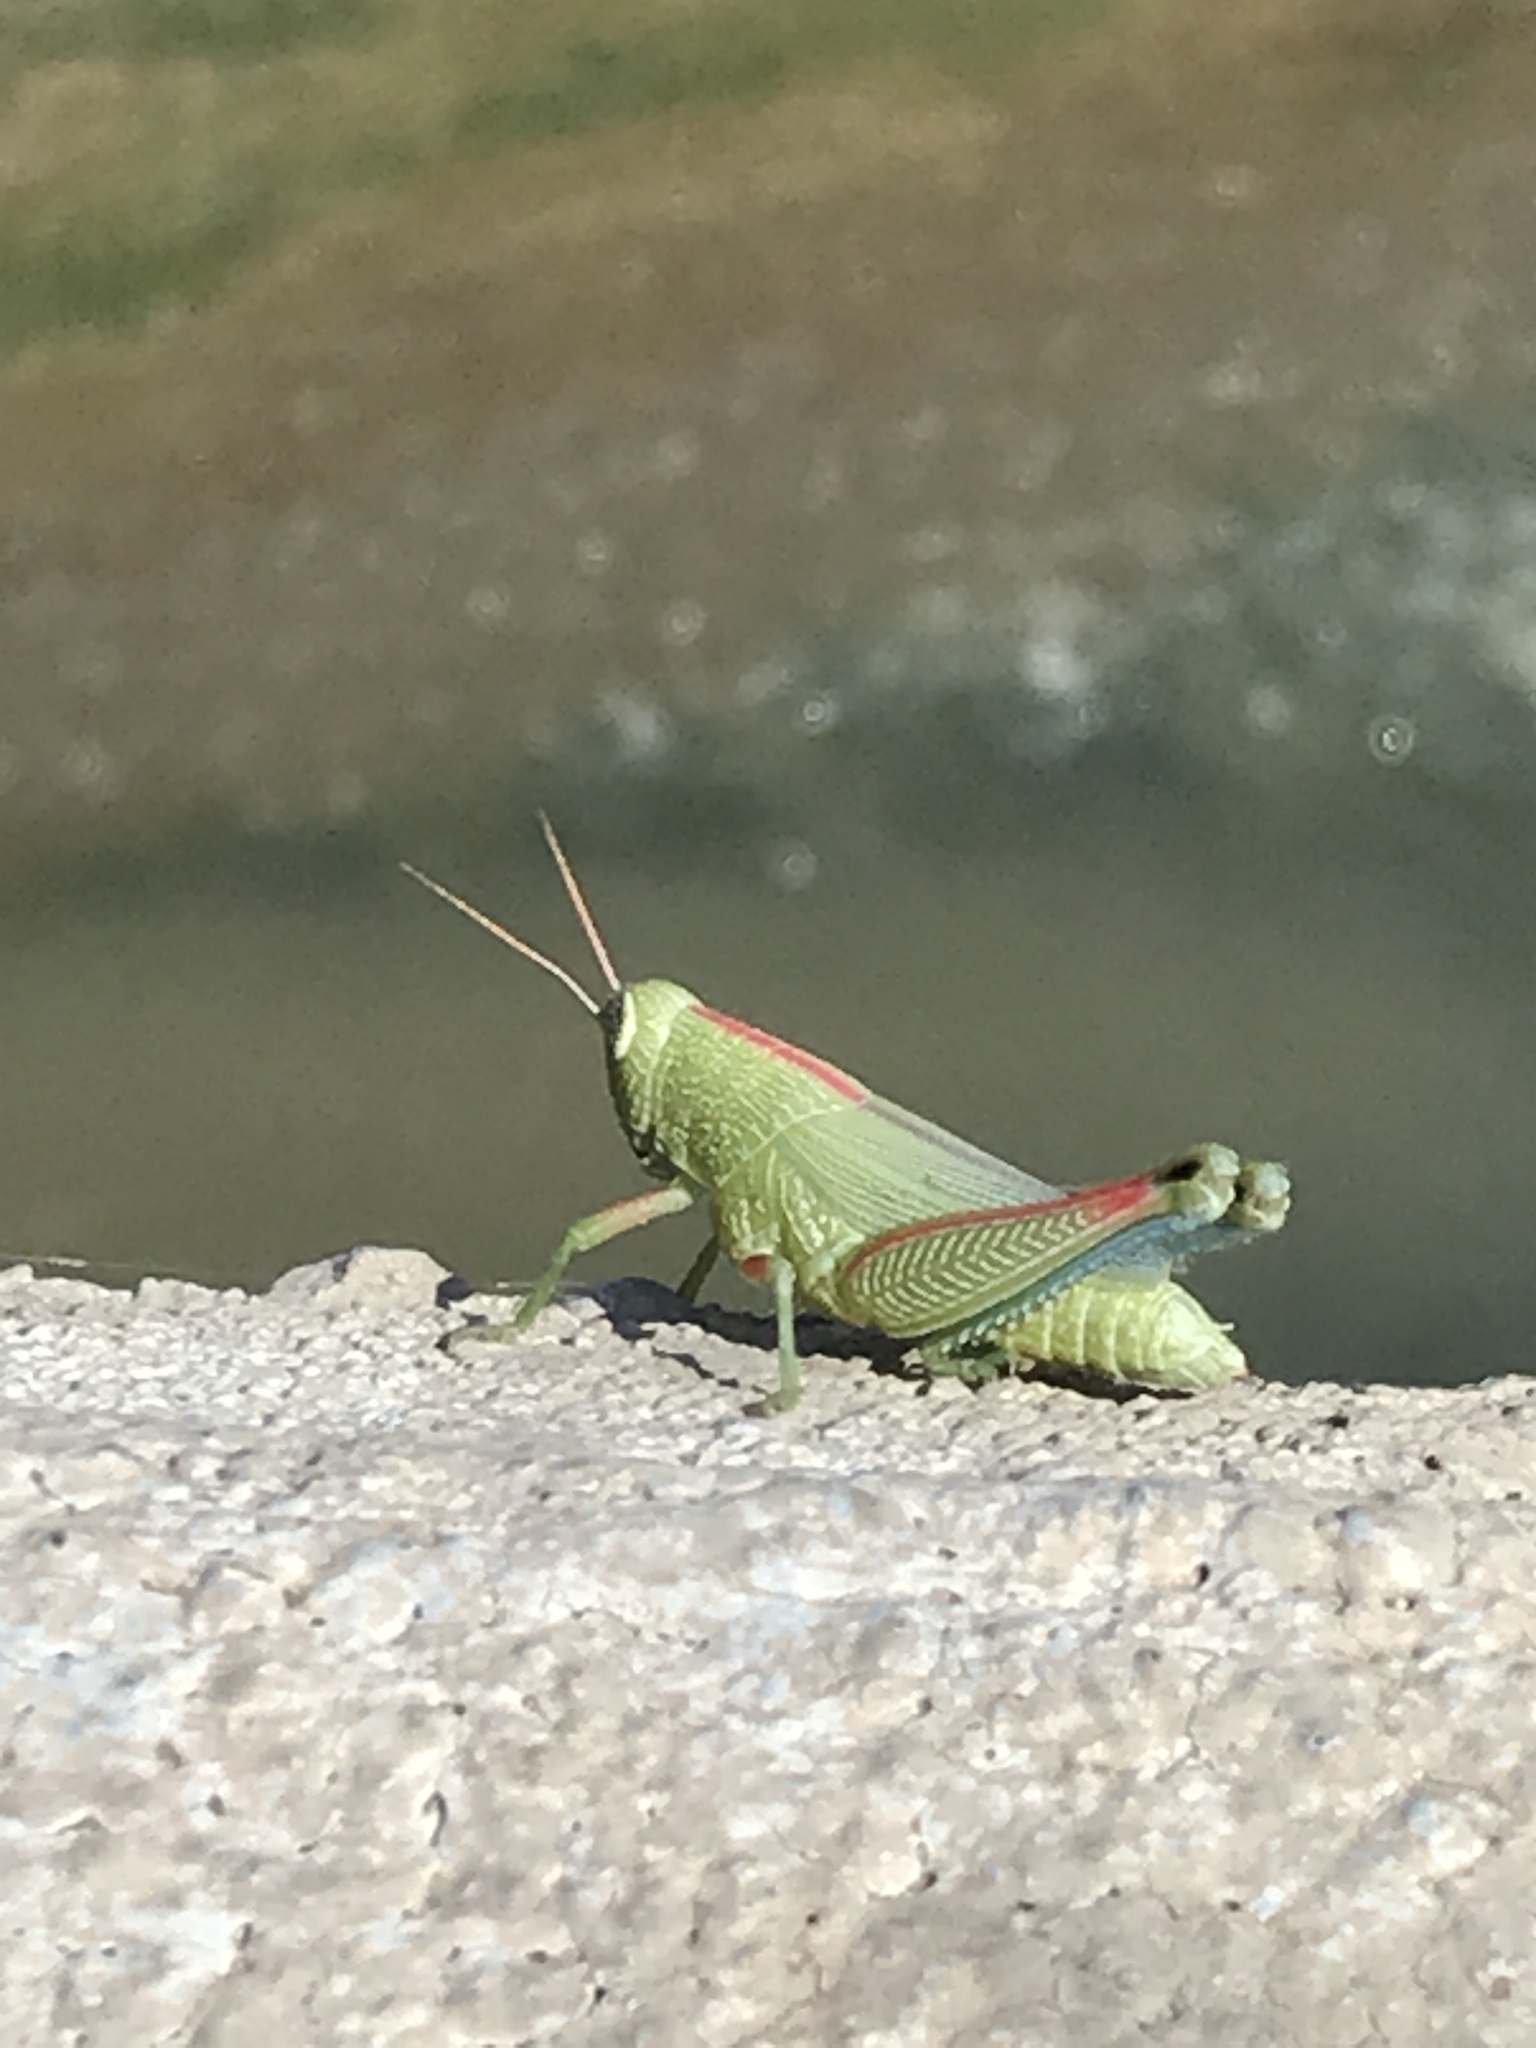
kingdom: Animalia
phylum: Arthropoda
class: Insecta
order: Orthoptera
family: Acrididae
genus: Hesperotettix
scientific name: Hesperotettix speciosus
